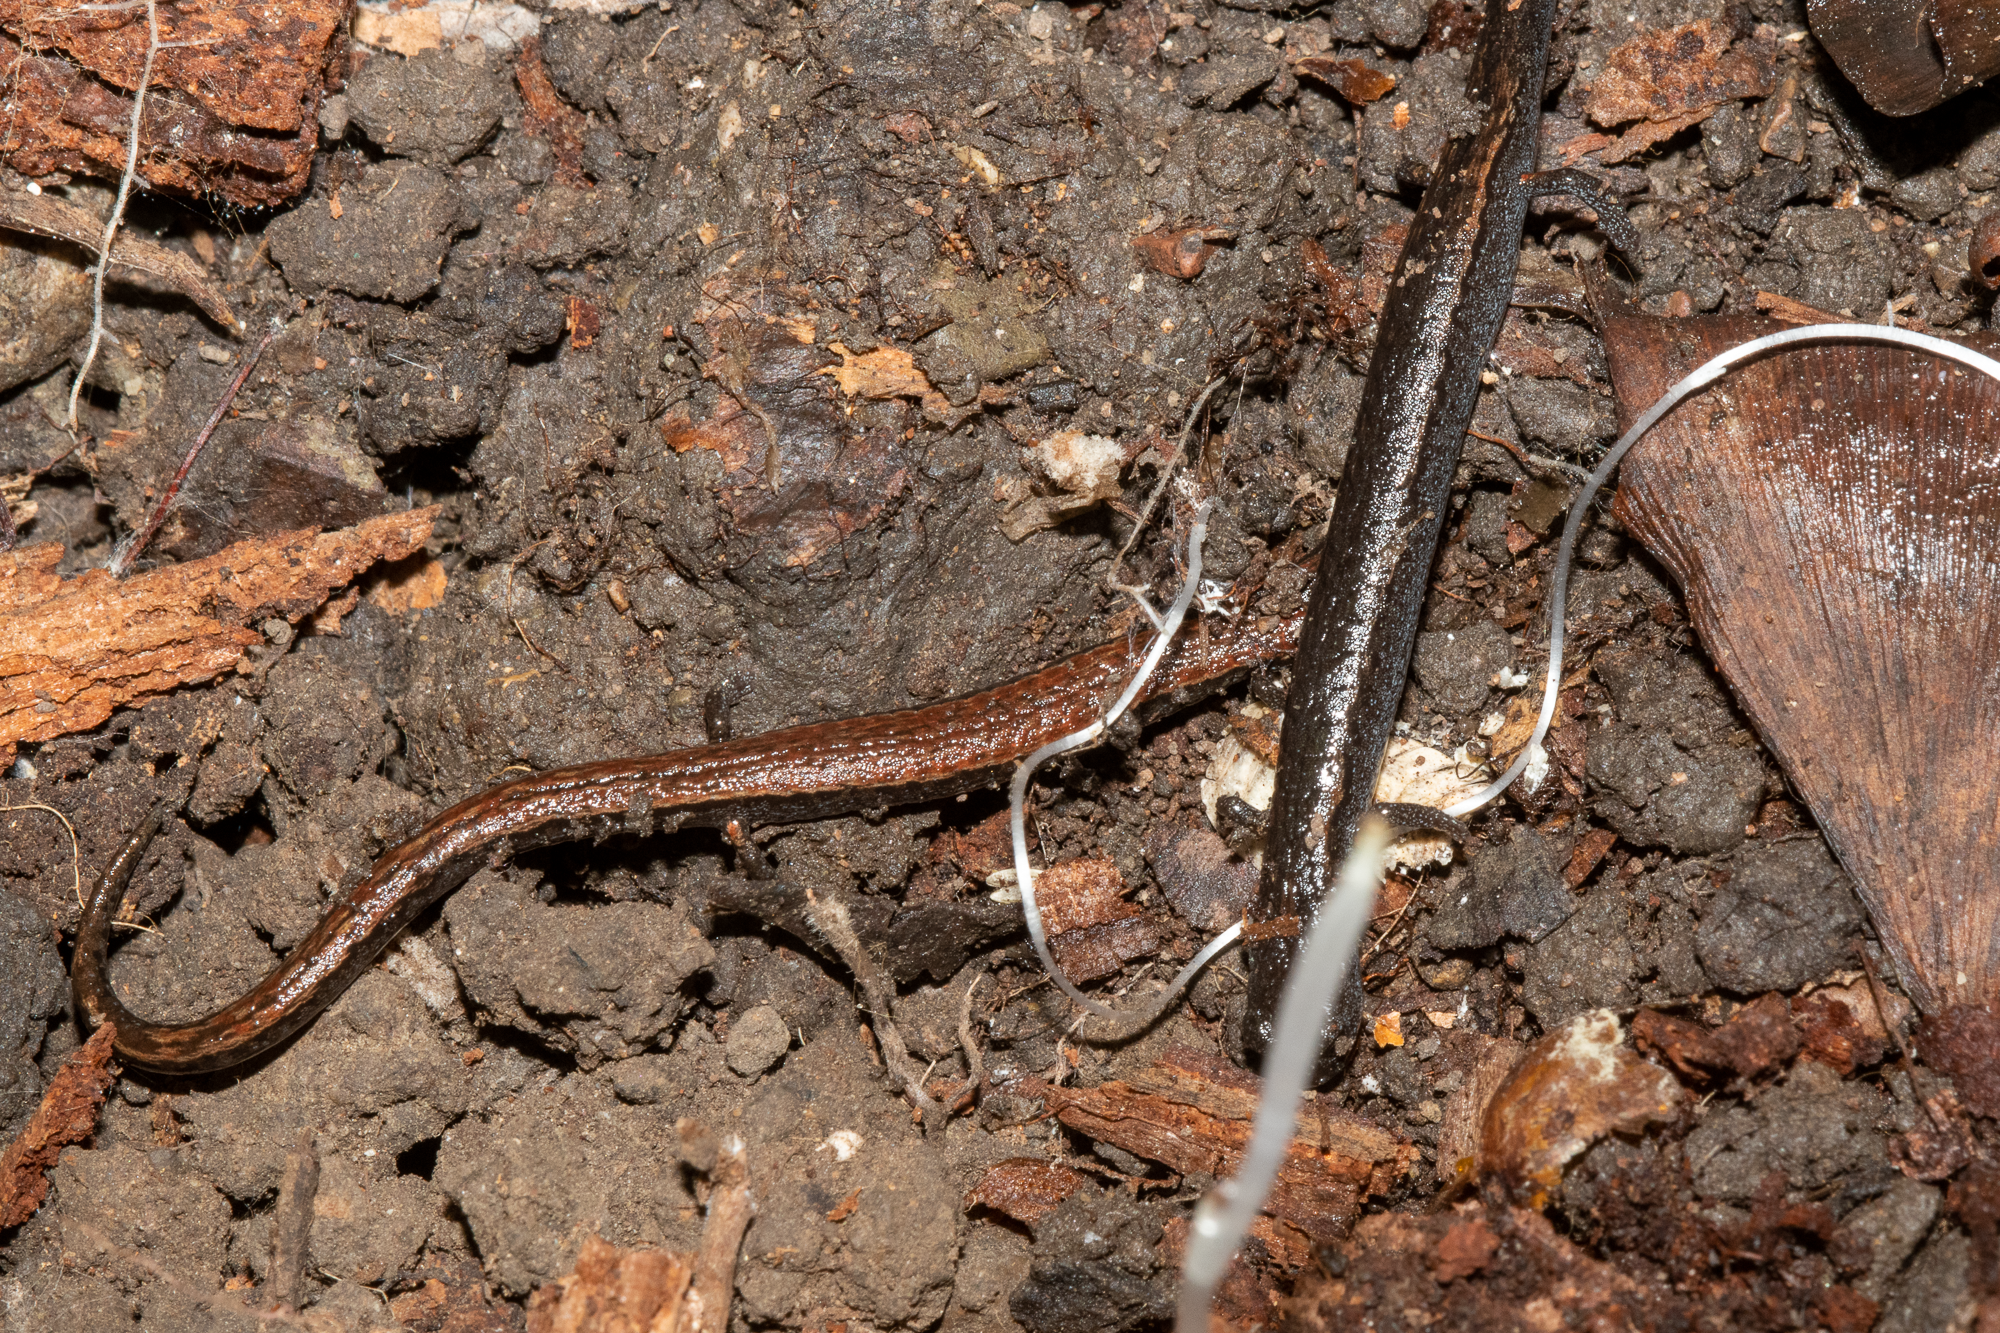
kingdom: Animalia
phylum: Chordata
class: Amphibia
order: Caudata
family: Plethodontidae
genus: Batrachoseps
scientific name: Batrachoseps attenuatus
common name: California slender salamander
